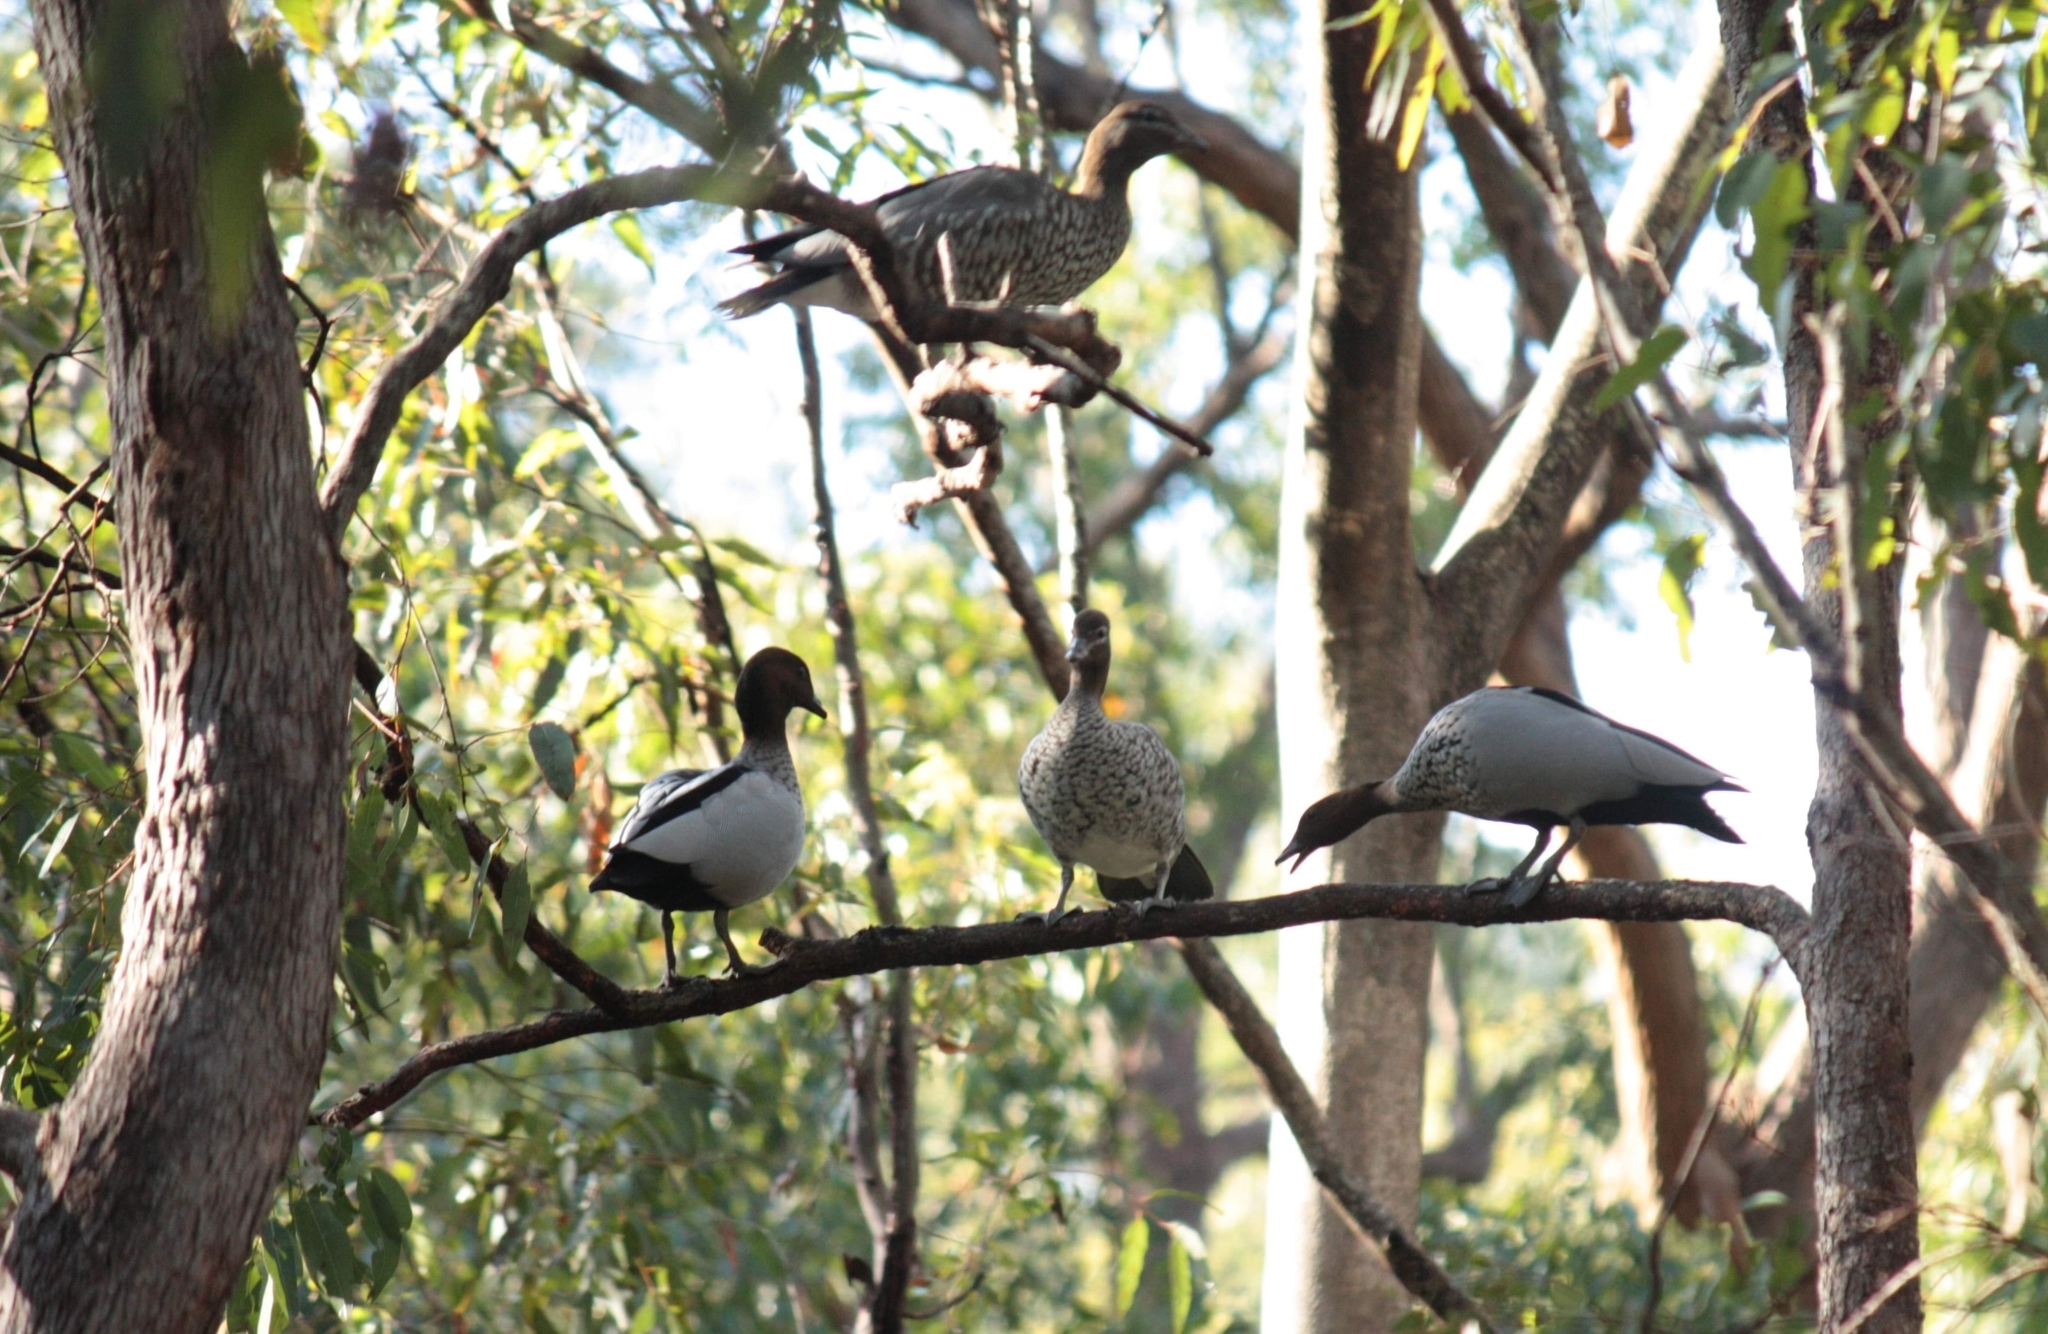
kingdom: Animalia
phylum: Chordata
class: Aves
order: Anseriformes
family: Anatidae
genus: Chenonetta
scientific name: Chenonetta jubata
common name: Maned duck
